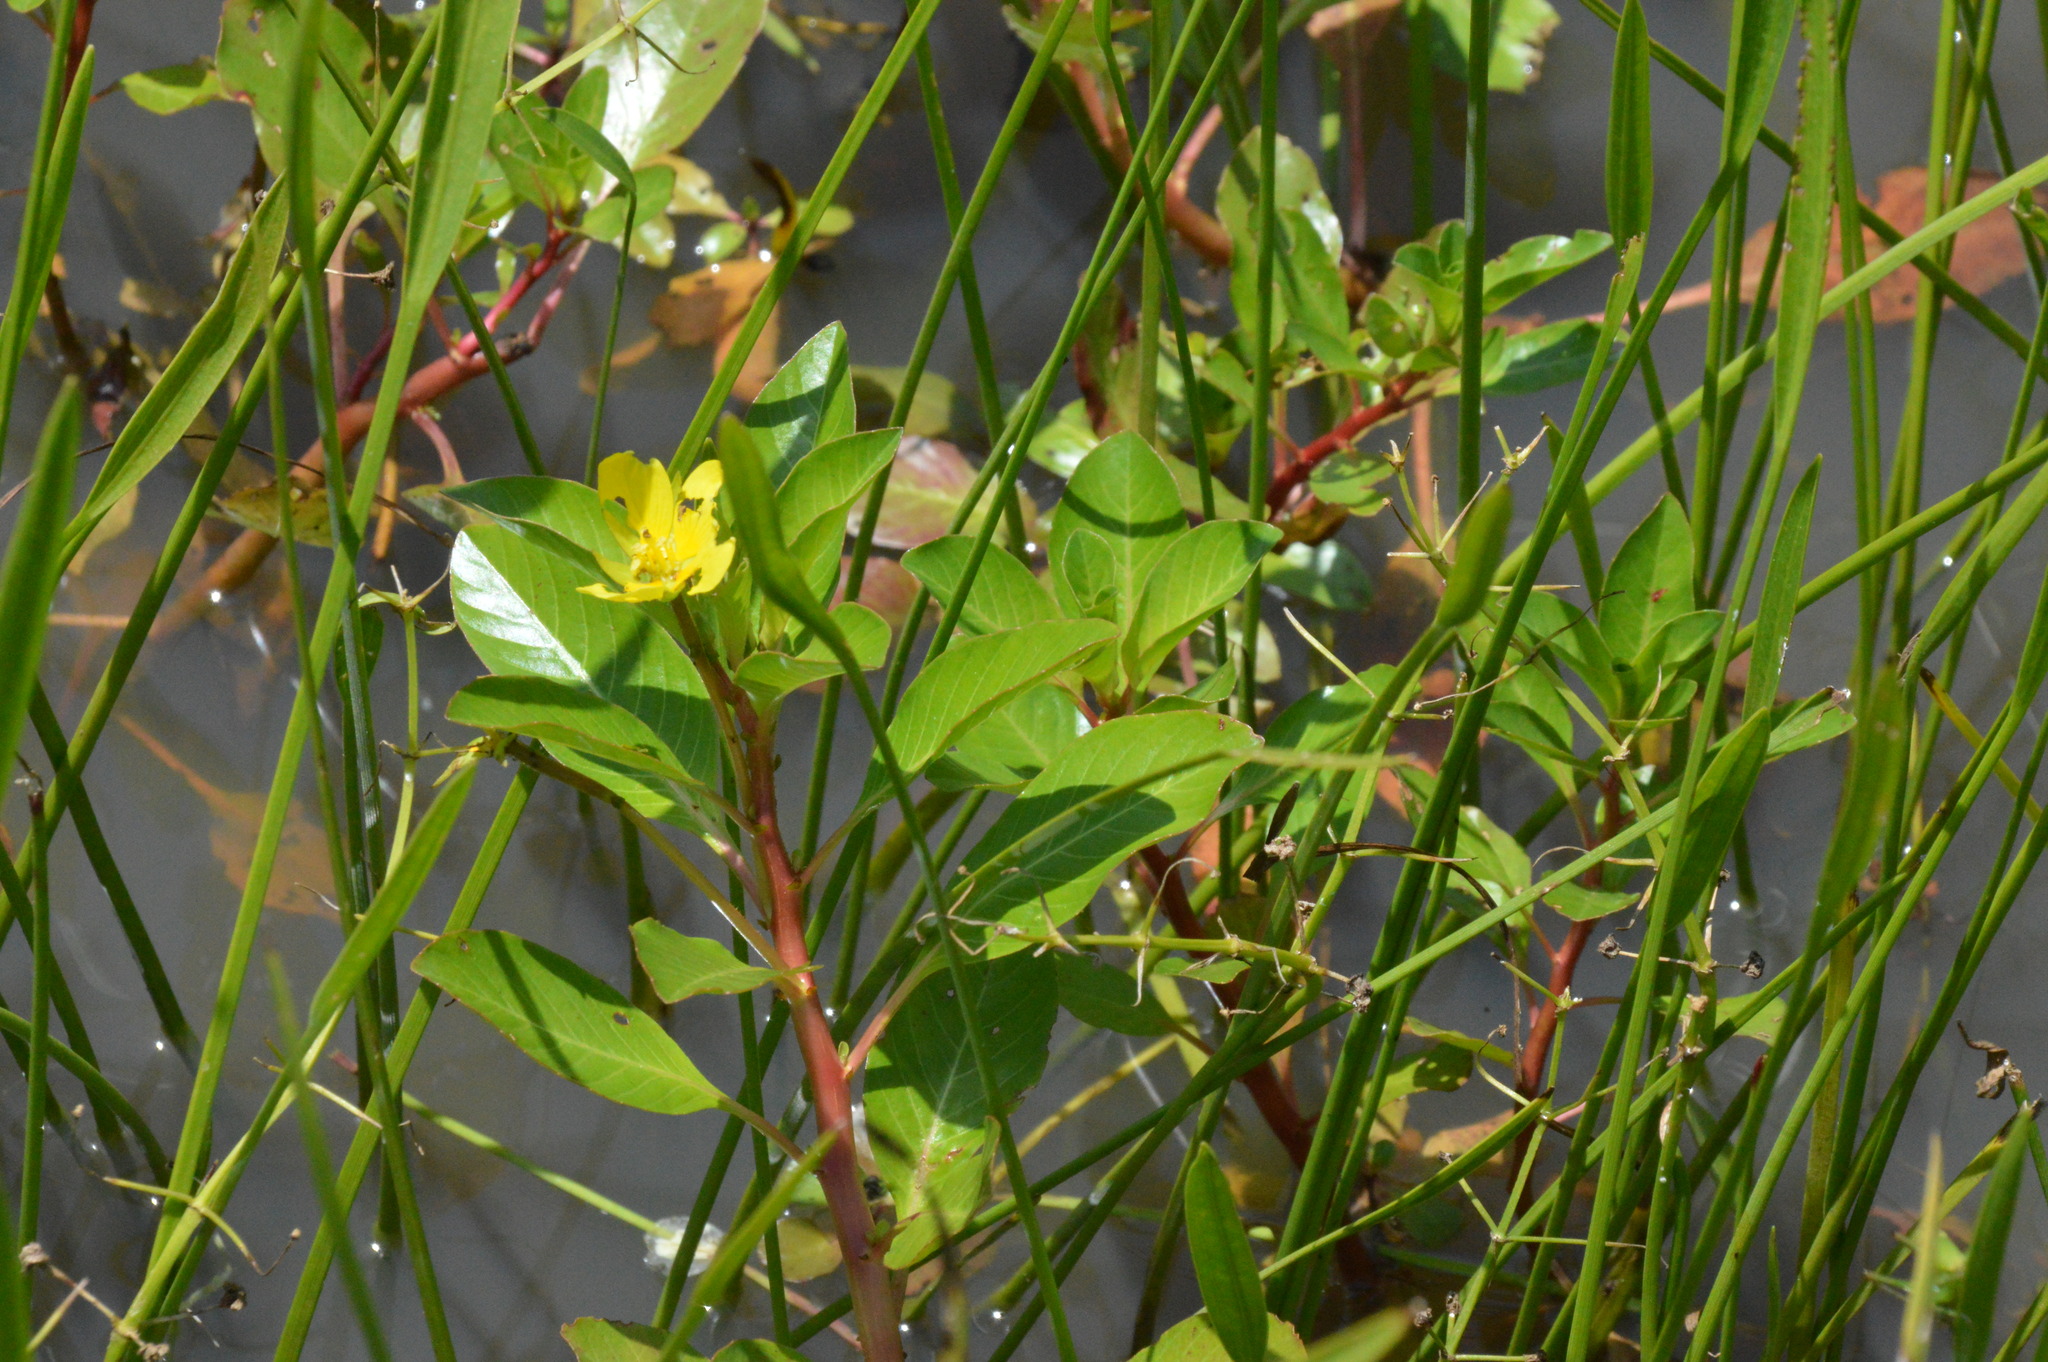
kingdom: Plantae
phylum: Tracheophyta
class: Magnoliopsida
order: Myrtales
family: Onagraceae
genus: Ludwigia
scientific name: Ludwigia peploides
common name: Floating primrose-willow
